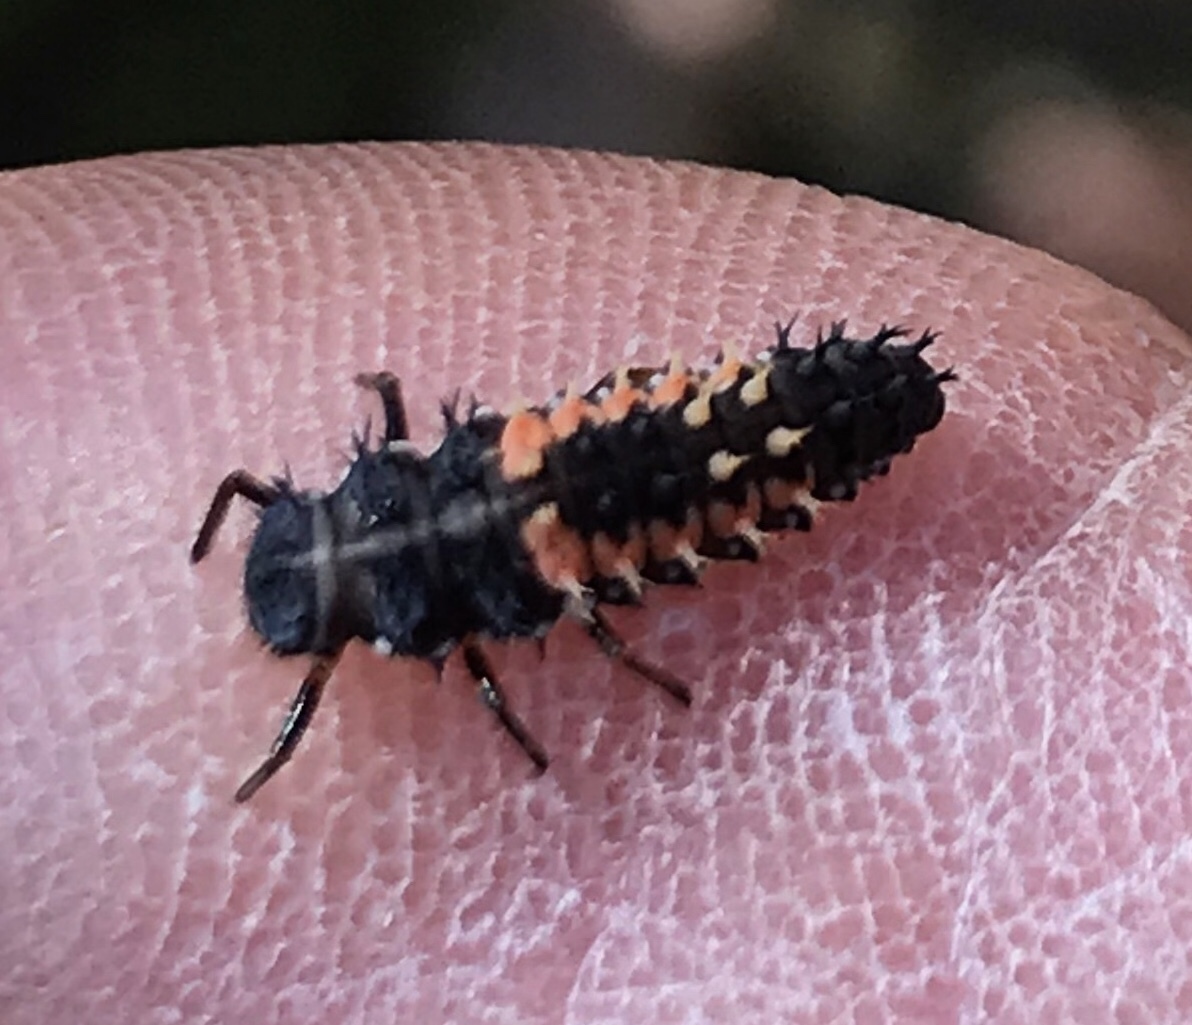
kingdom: Animalia
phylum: Arthropoda
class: Insecta
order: Coleoptera
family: Coccinellidae
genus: Harmonia
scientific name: Harmonia axyridis
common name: Harlequin ladybird
